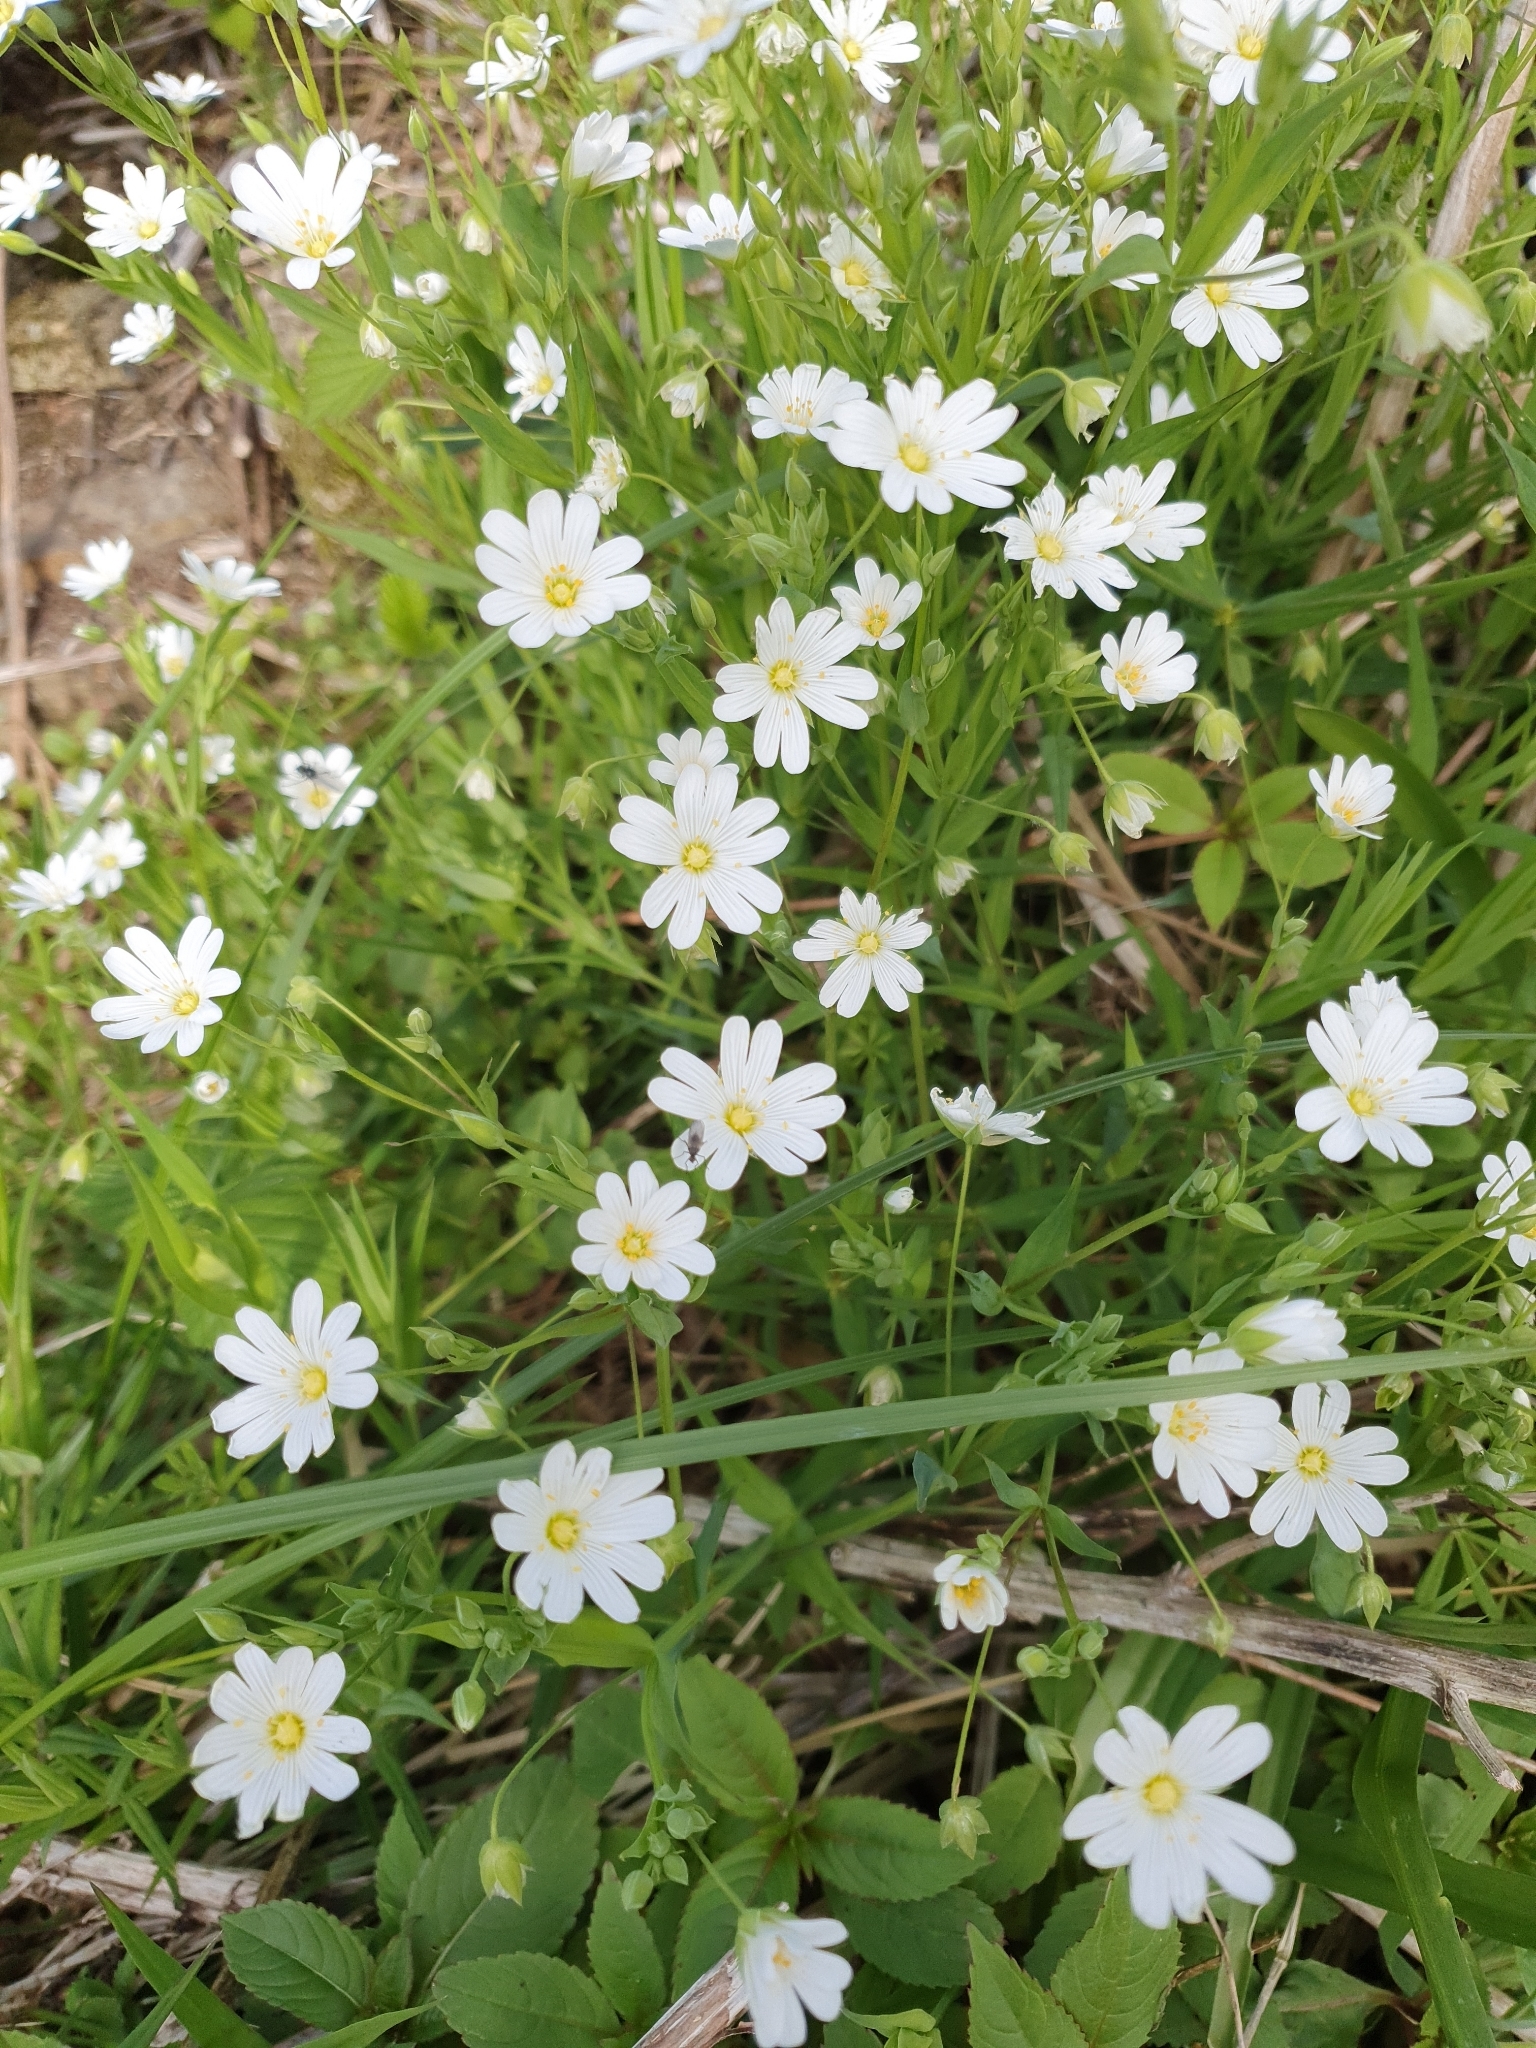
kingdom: Plantae
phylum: Tracheophyta
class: Magnoliopsida
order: Caryophyllales
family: Caryophyllaceae
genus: Rabelera
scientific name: Rabelera holostea
